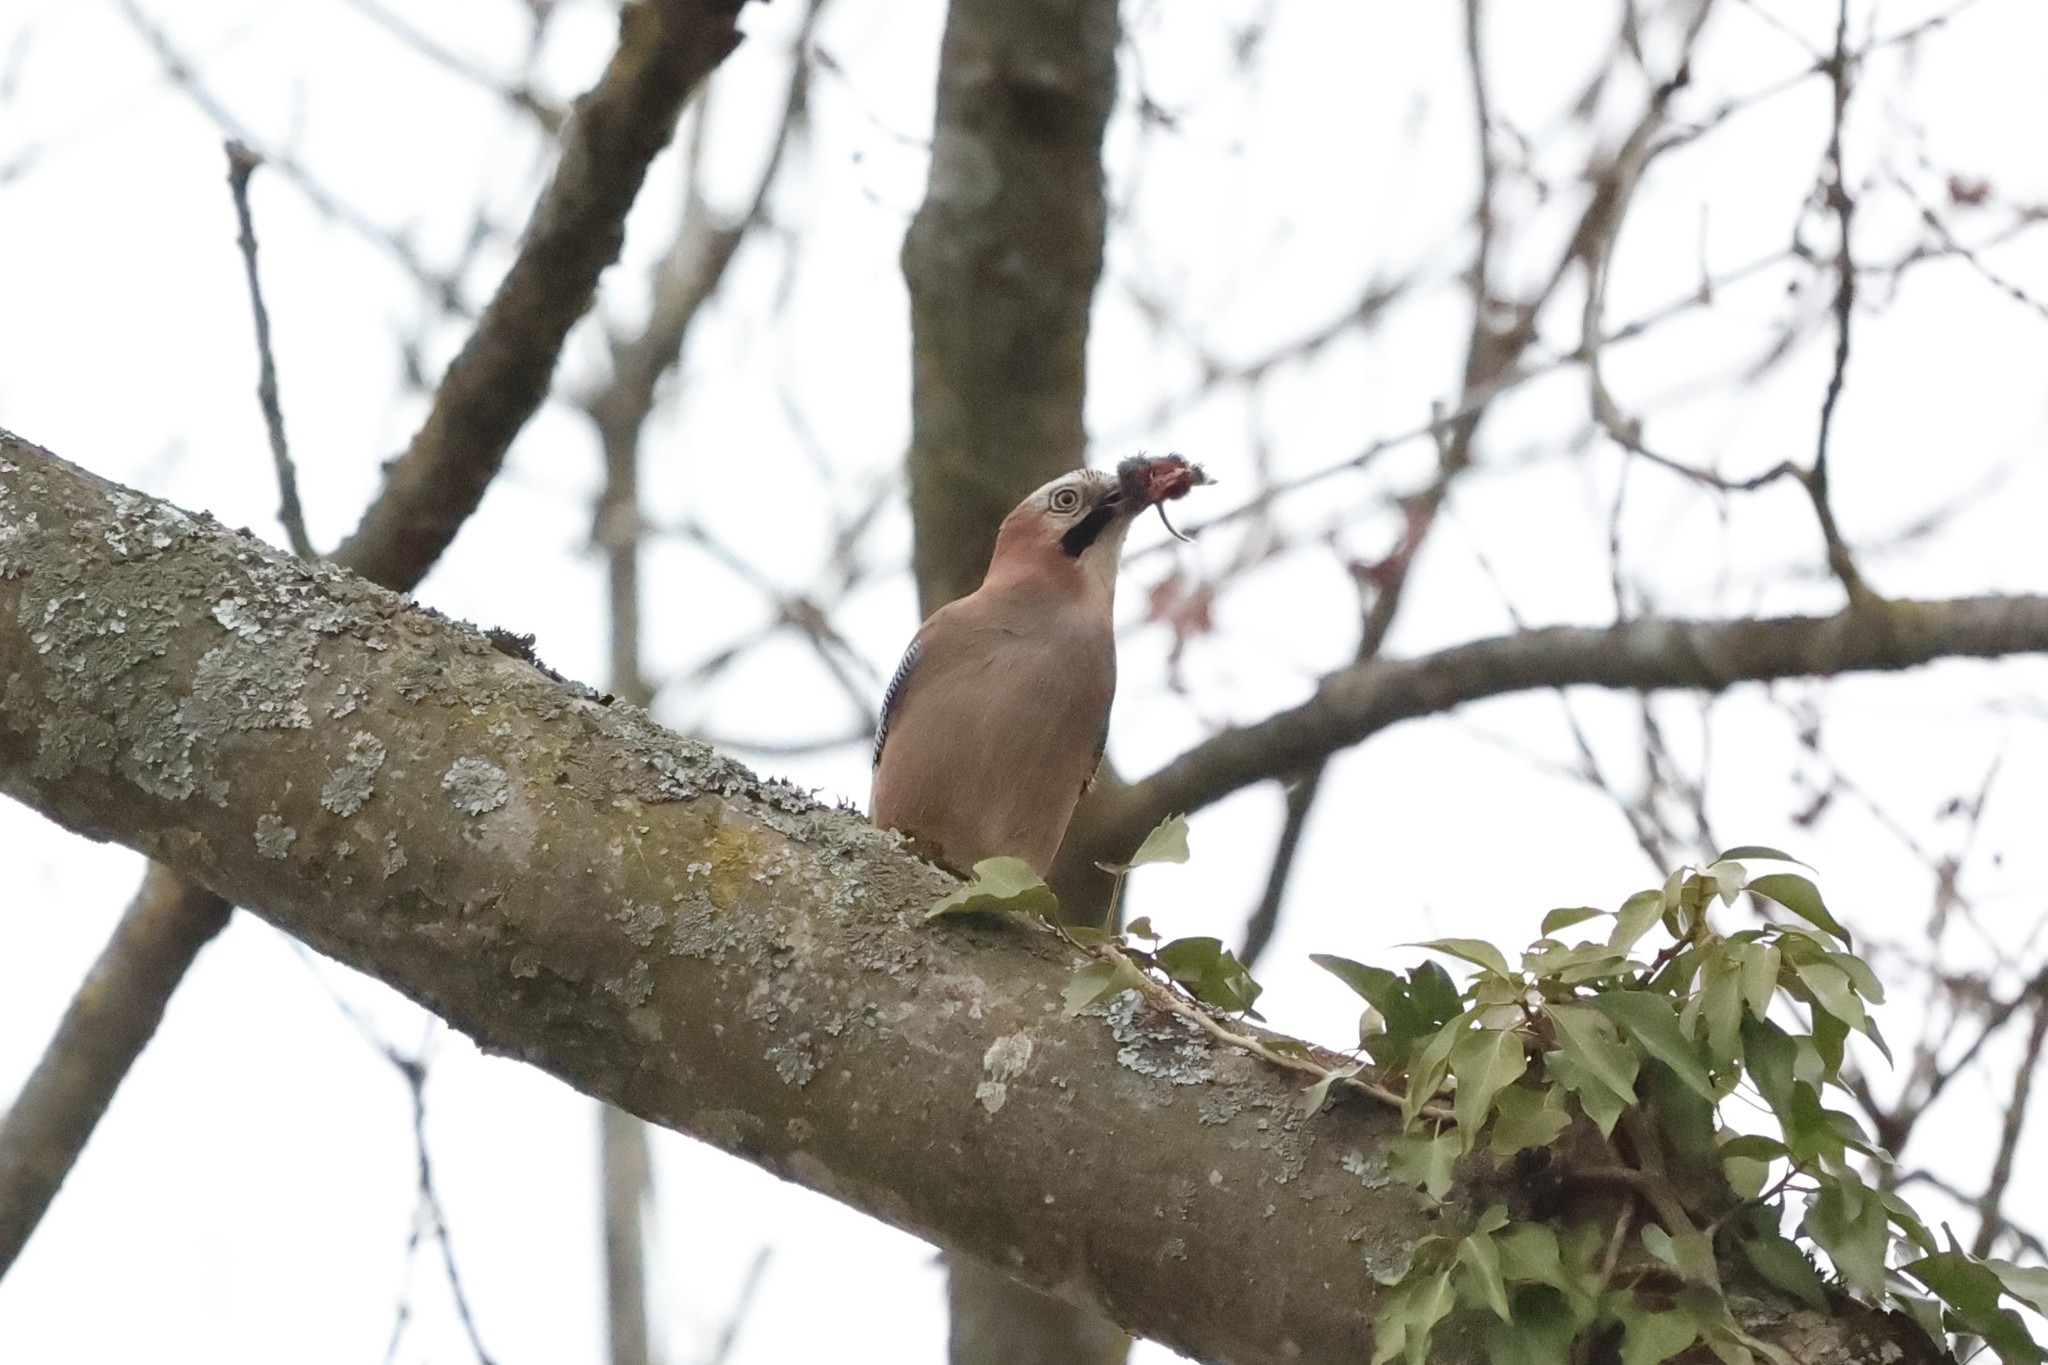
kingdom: Animalia
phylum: Chordata
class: Aves
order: Passeriformes
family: Corvidae
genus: Garrulus
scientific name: Garrulus glandarius
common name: Eurasian jay
